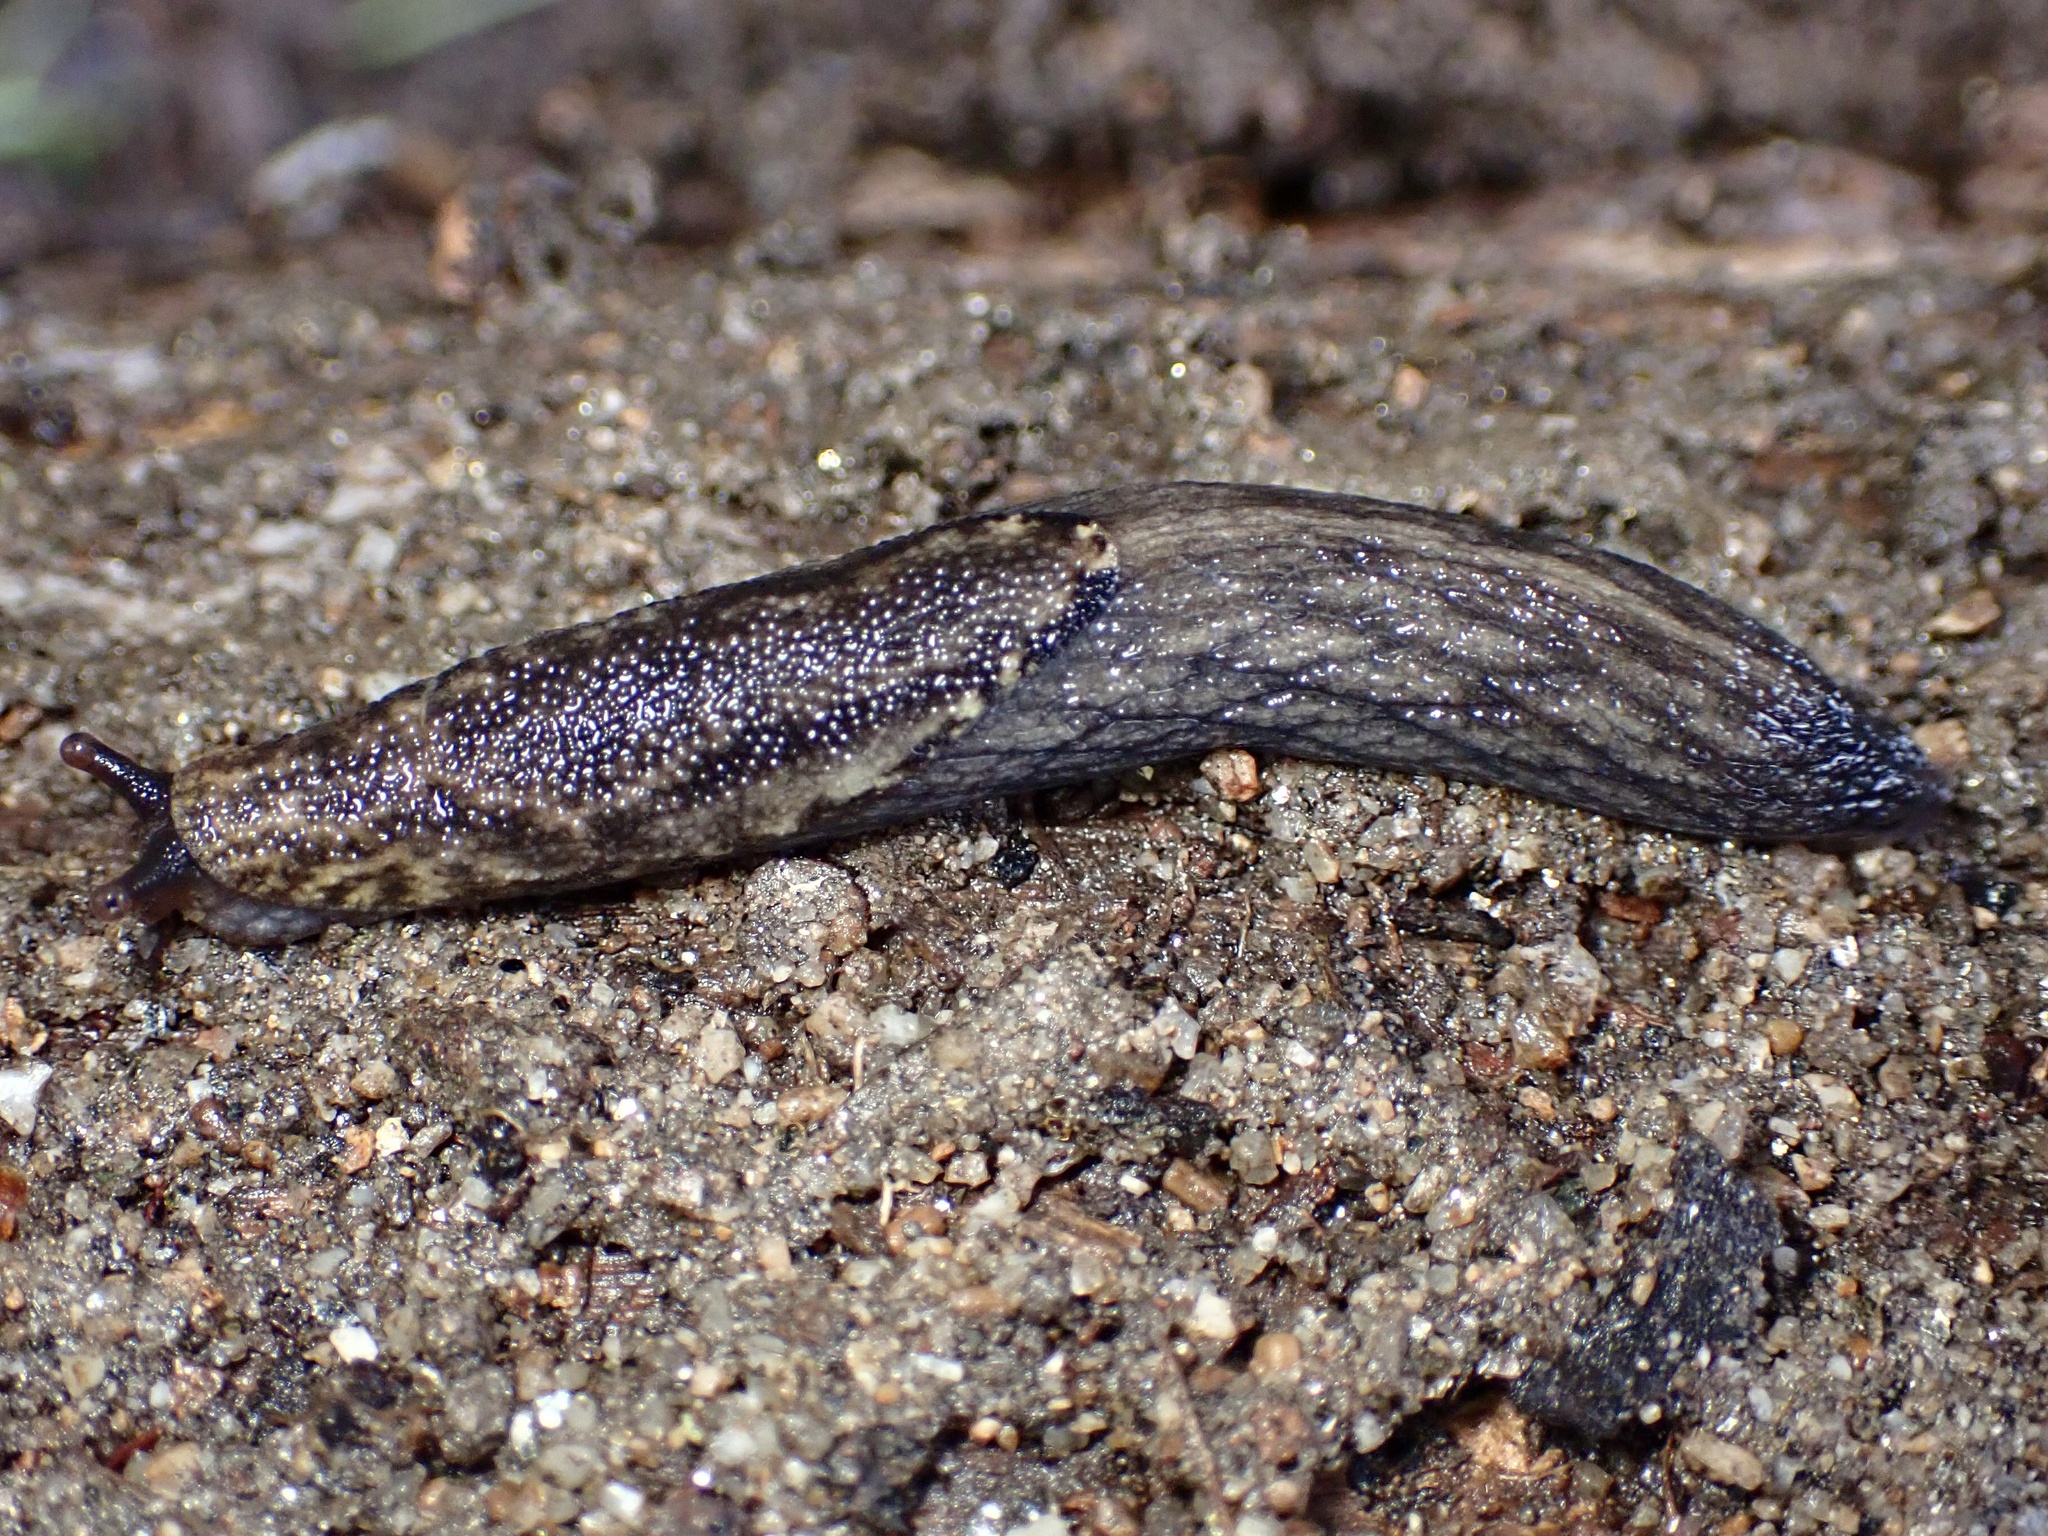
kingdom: Animalia
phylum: Mollusca
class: Gastropoda
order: Stylommatophora
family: Ariolimacidae
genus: Prophysaon
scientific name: Prophysaon andersonii
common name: Reticulate taildropper
